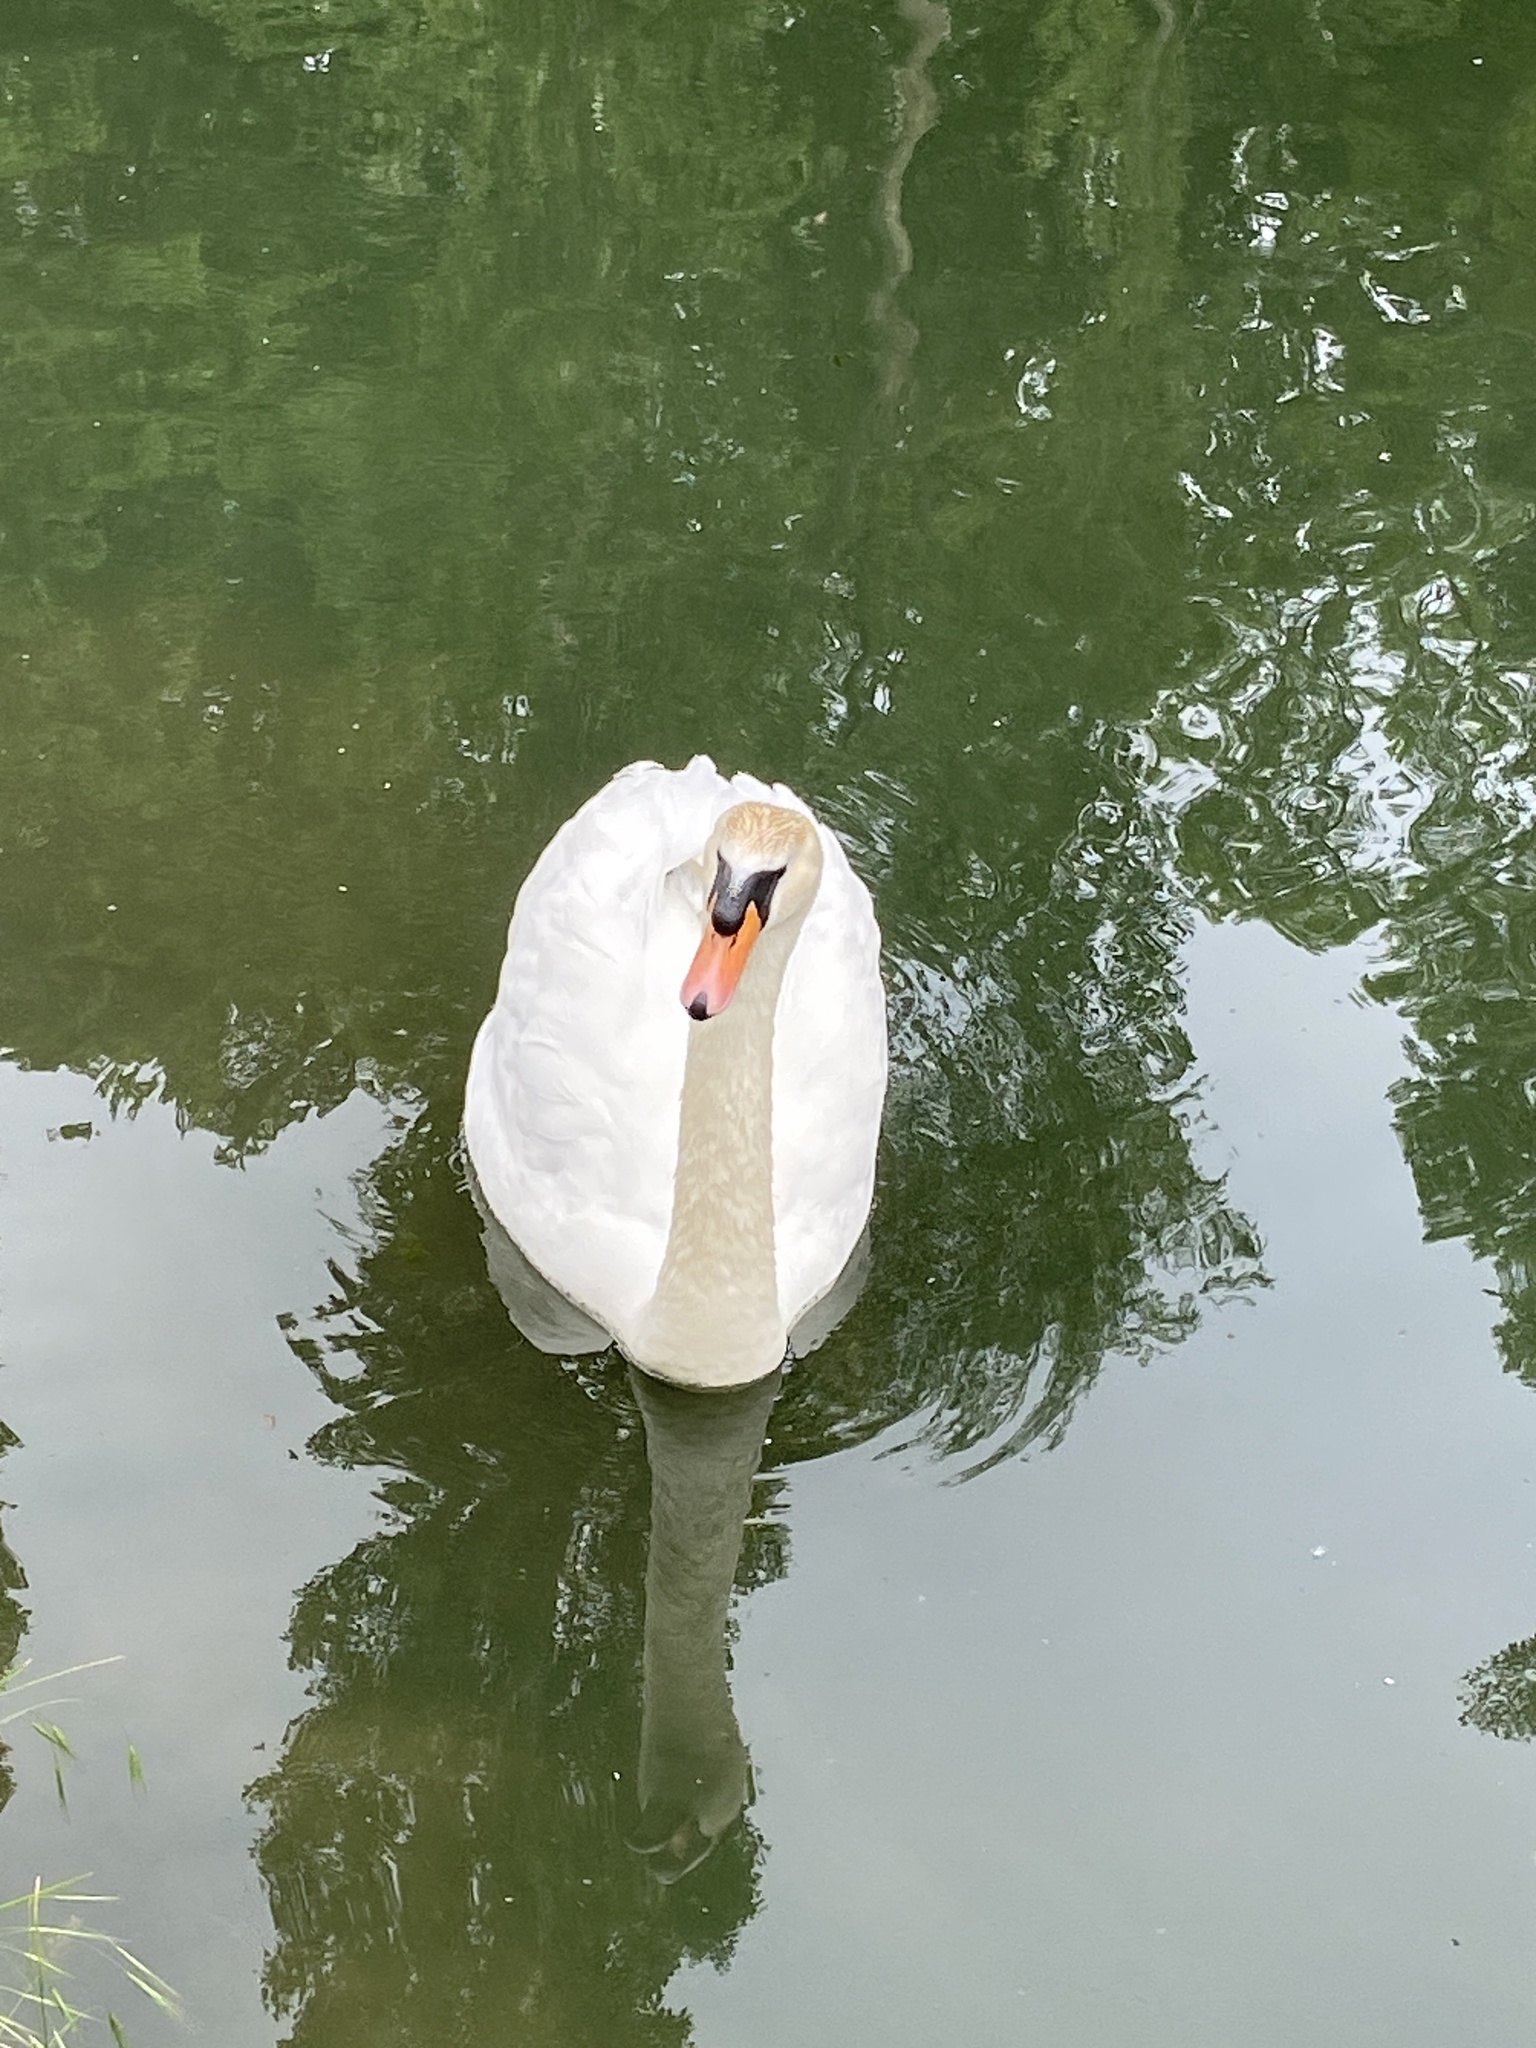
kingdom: Animalia
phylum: Chordata
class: Aves
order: Anseriformes
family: Anatidae
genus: Cygnus
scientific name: Cygnus olor
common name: Mute swan
